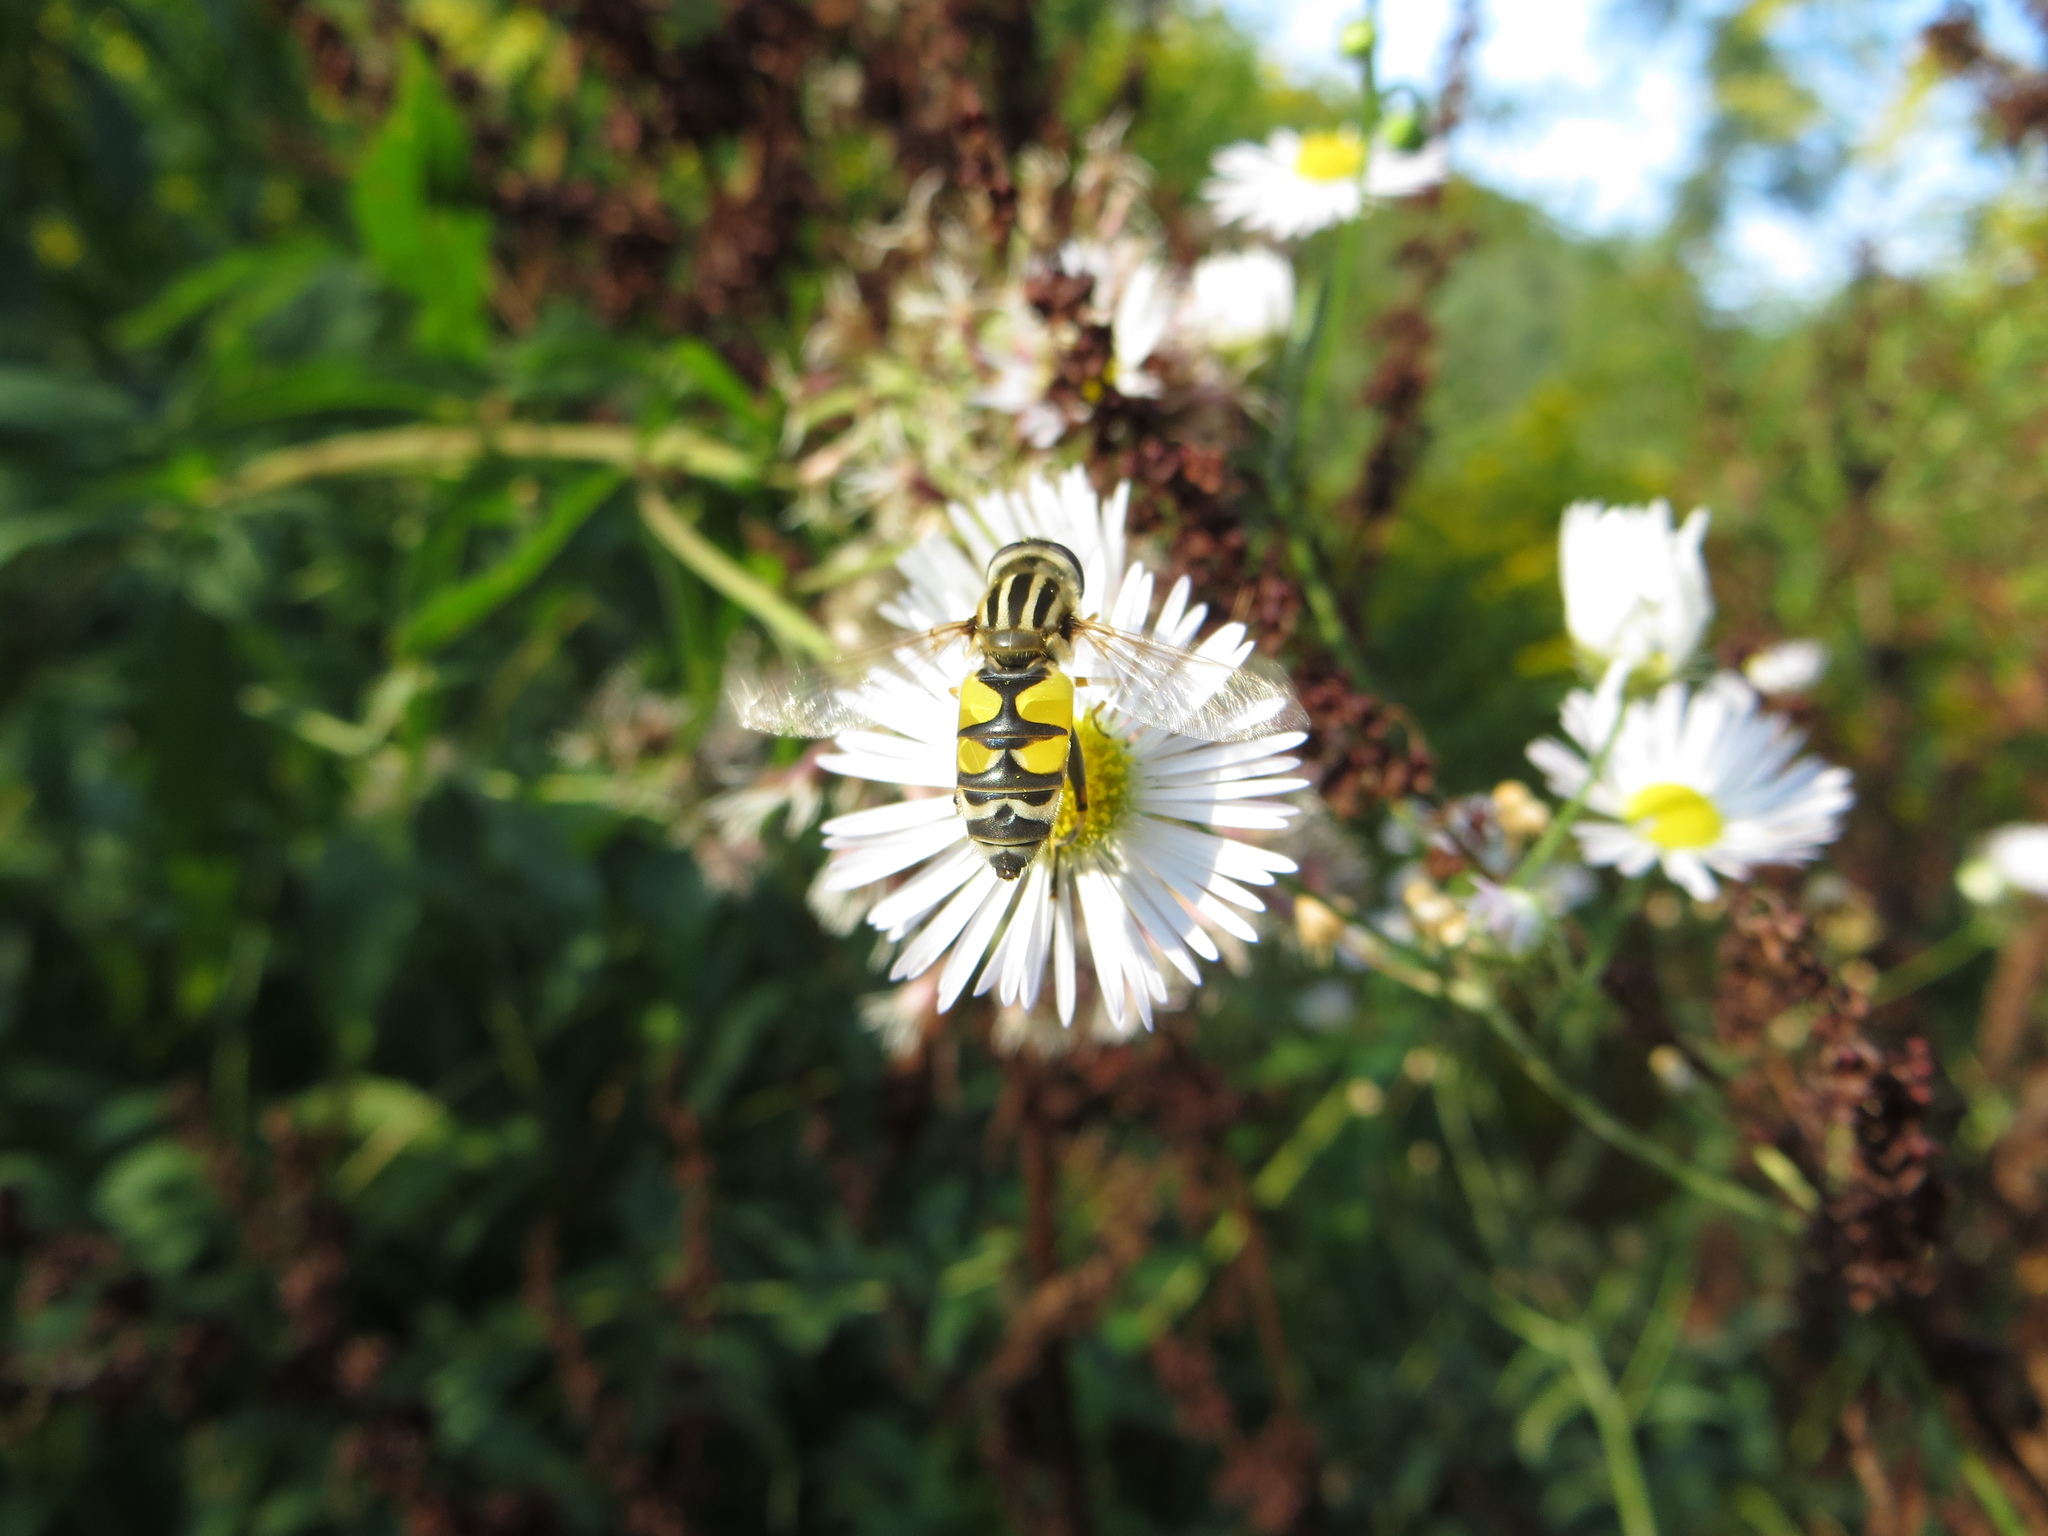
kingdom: Animalia
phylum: Arthropoda
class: Insecta
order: Diptera
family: Syrphidae
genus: Helophilus
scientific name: Helophilus trivittatus
